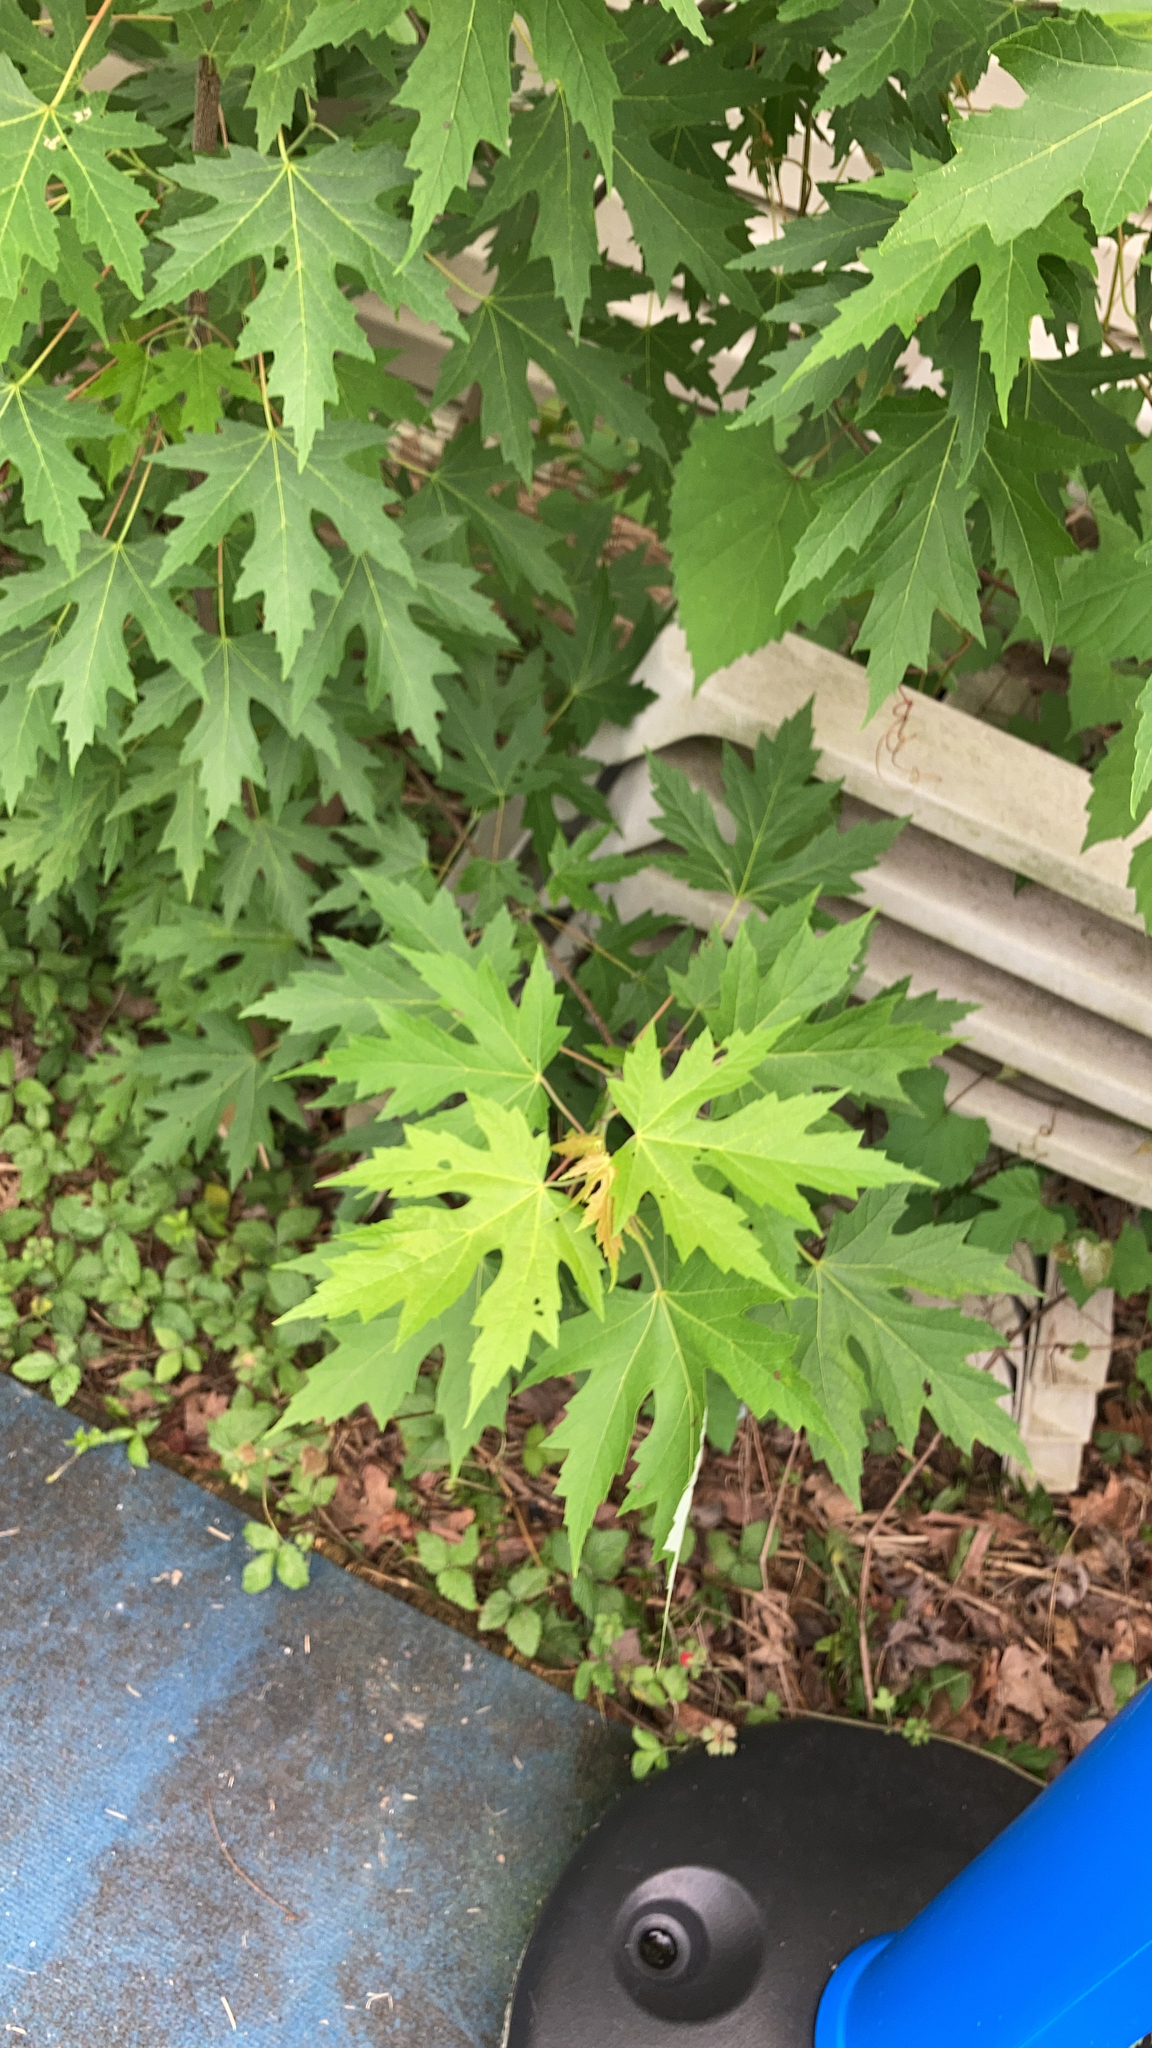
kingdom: Plantae
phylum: Tracheophyta
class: Magnoliopsida
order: Sapindales
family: Sapindaceae
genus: Acer
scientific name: Acer saccharinum
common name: Silver maple
